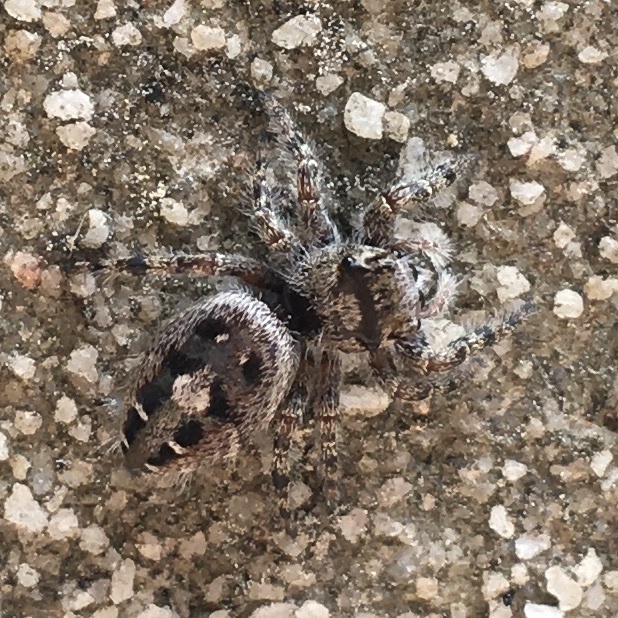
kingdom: Animalia
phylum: Arthropoda
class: Arachnida
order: Araneae
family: Salticidae
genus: Phidippus
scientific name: Phidippus putnami
